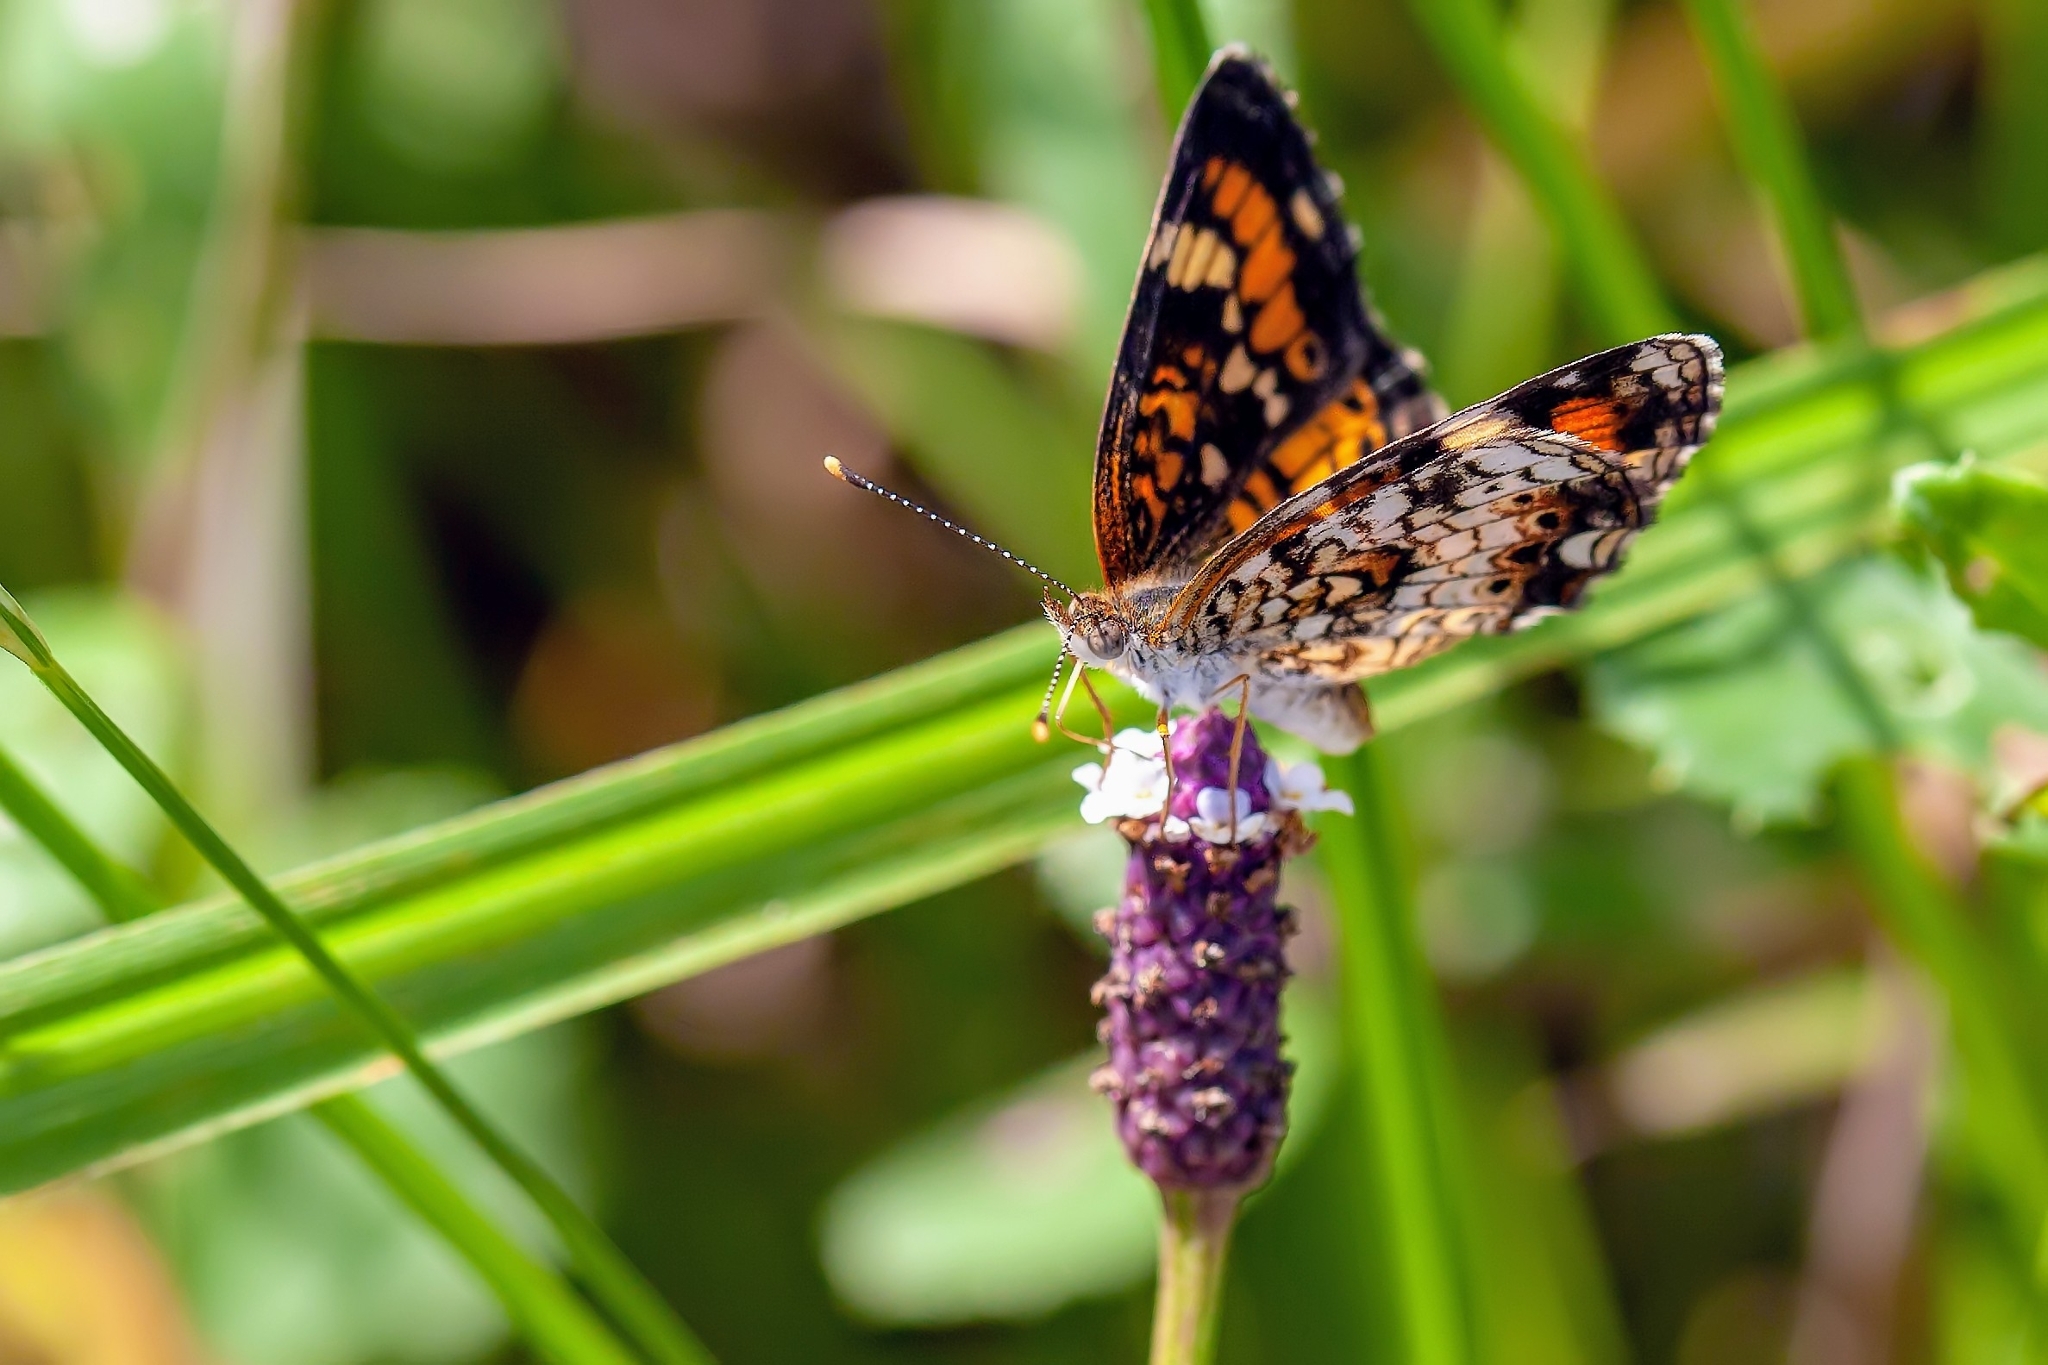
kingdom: Animalia
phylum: Arthropoda
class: Insecta
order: Lepidoptera
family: Nymphalidae
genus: Phyciodes
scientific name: Phyciodes phaon
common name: Phaon crescent
